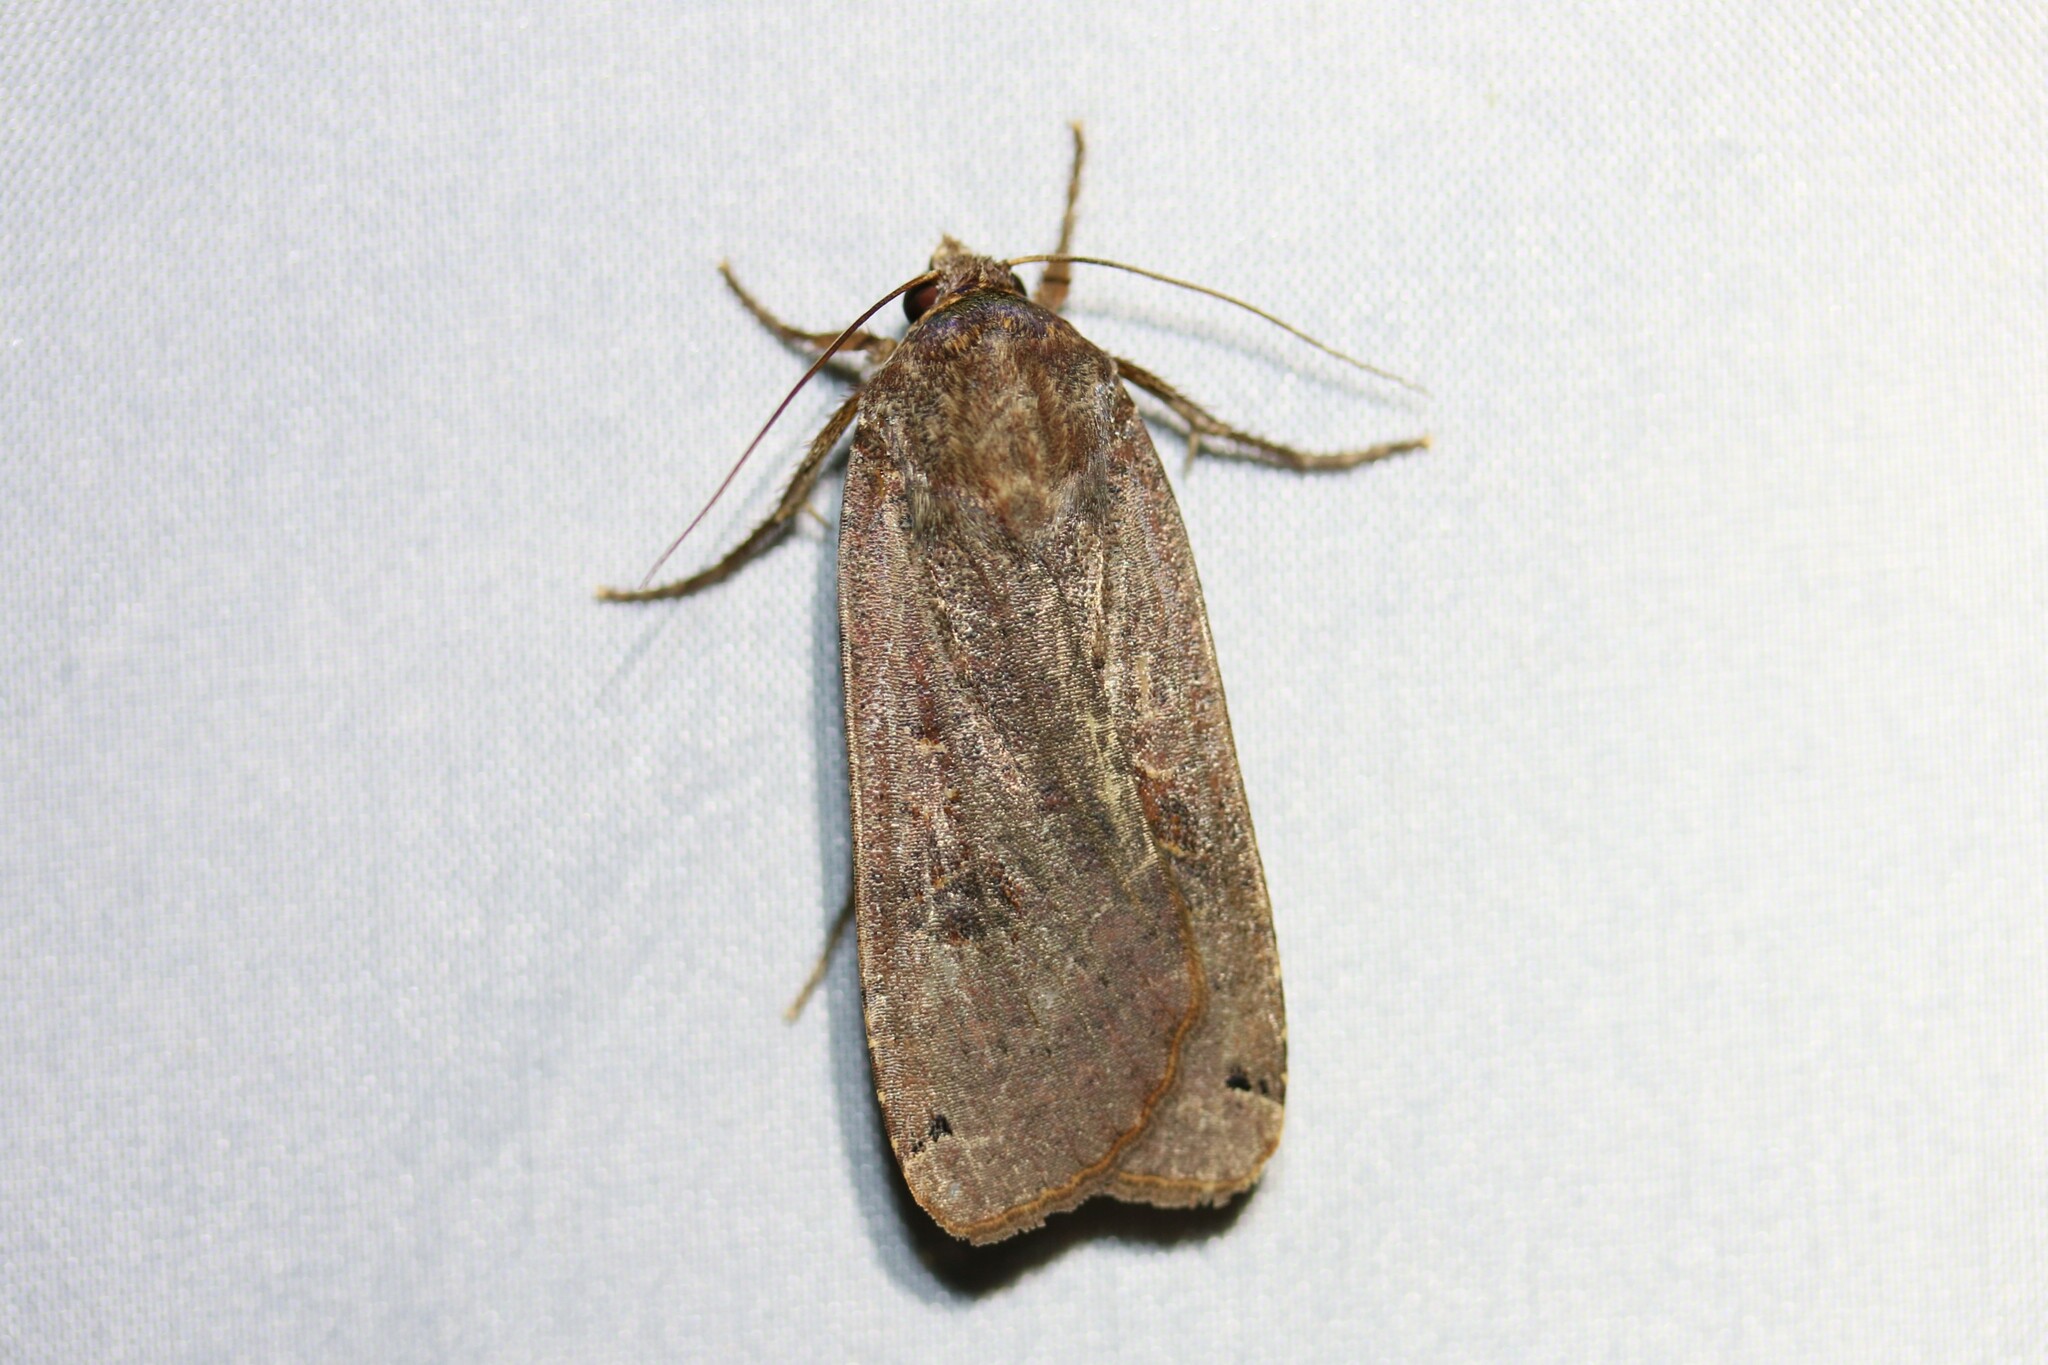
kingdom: Animalia
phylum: Arthropoda
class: Insecta
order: Lepidoptera
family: Noctuidae
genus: Noctua
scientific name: Noctua pronuba
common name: Large yellow underwing
